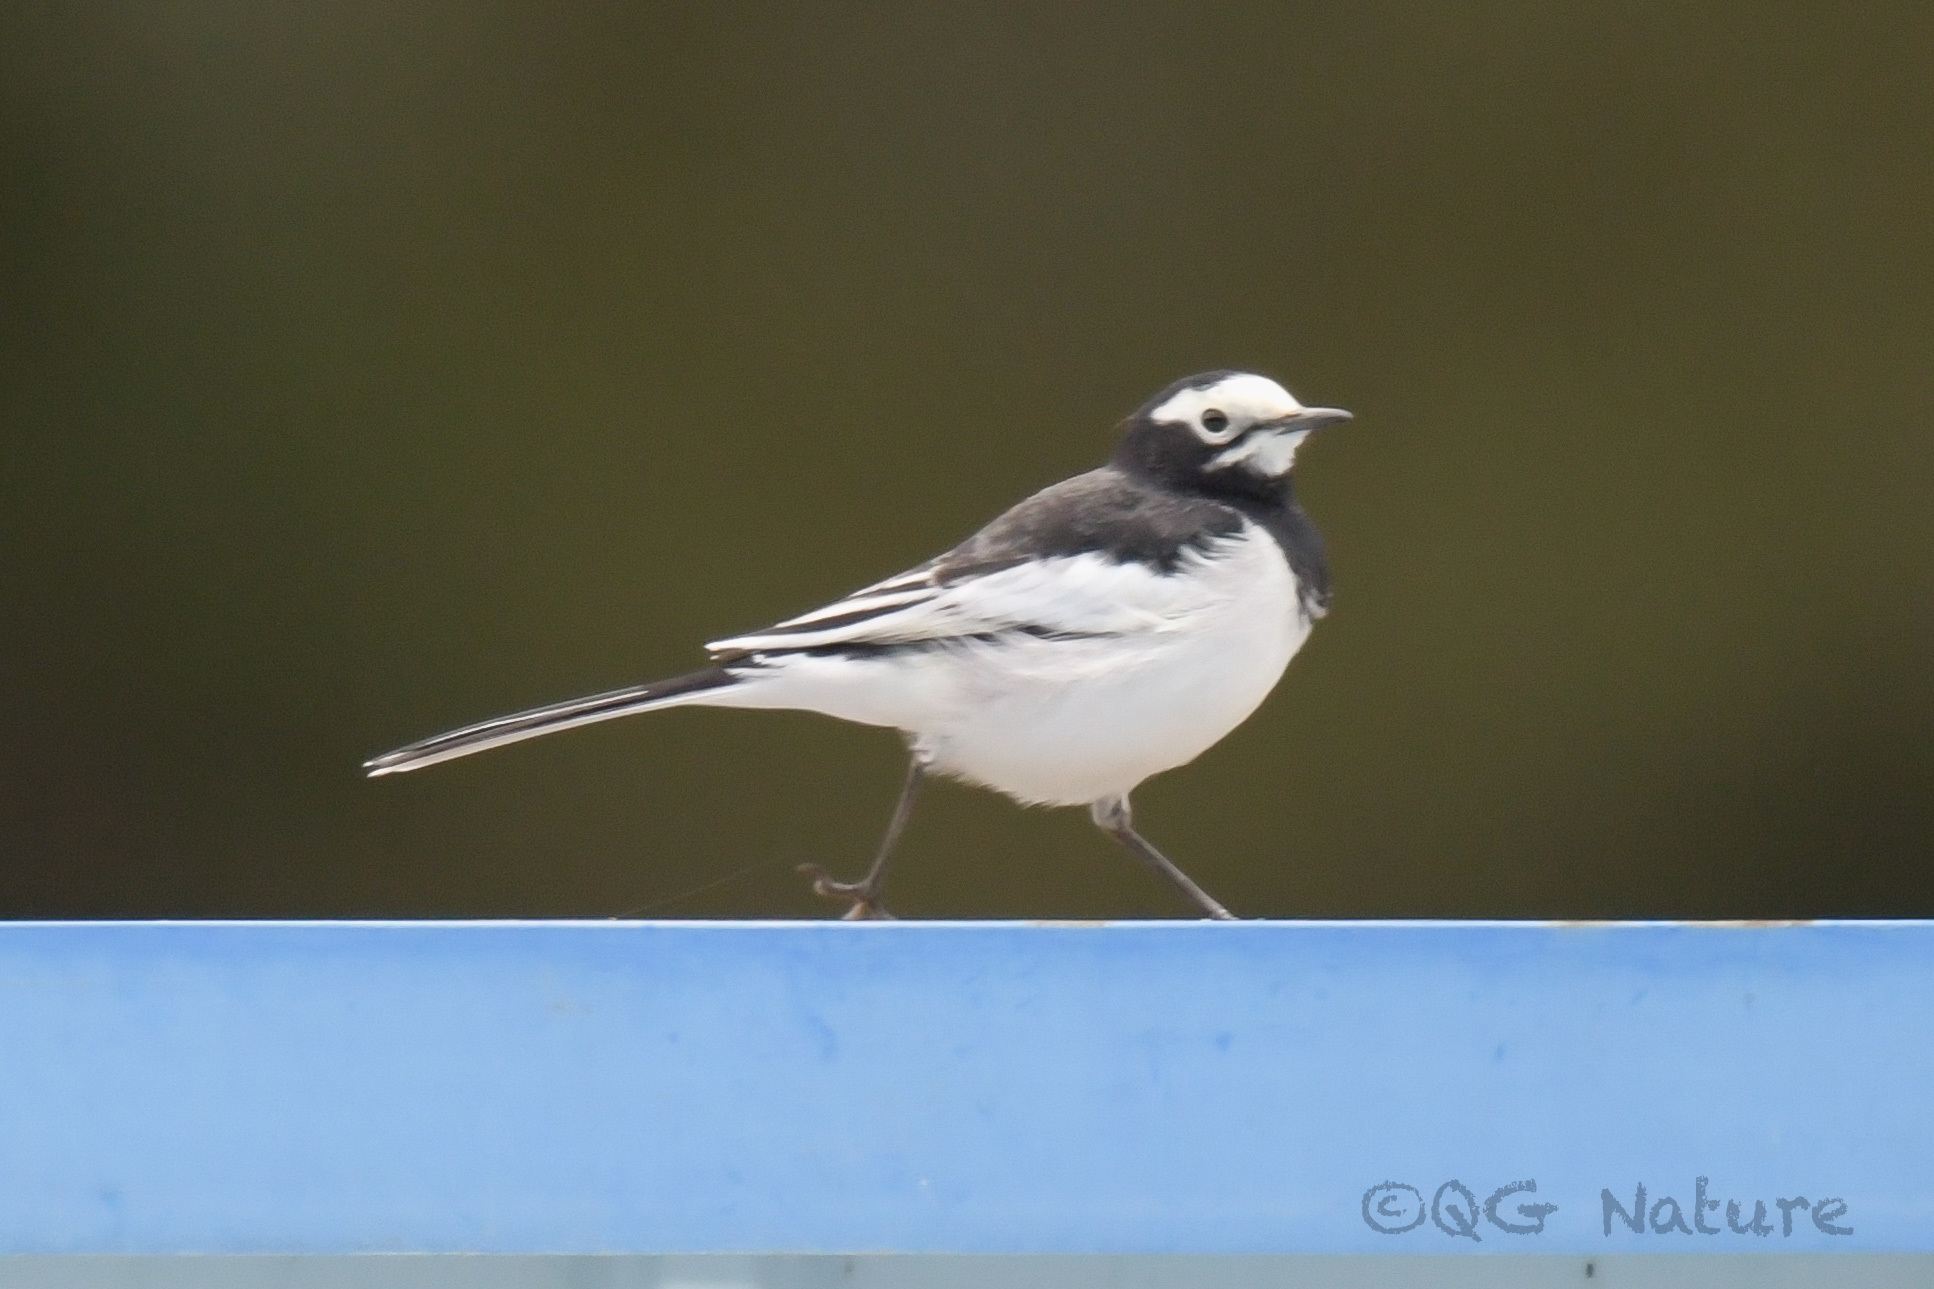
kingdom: Animalia
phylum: Chordata
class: Aves
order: Passeriformes
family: Motacillidae
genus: Motacilla
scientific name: Motacilla alba
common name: White wagtail
